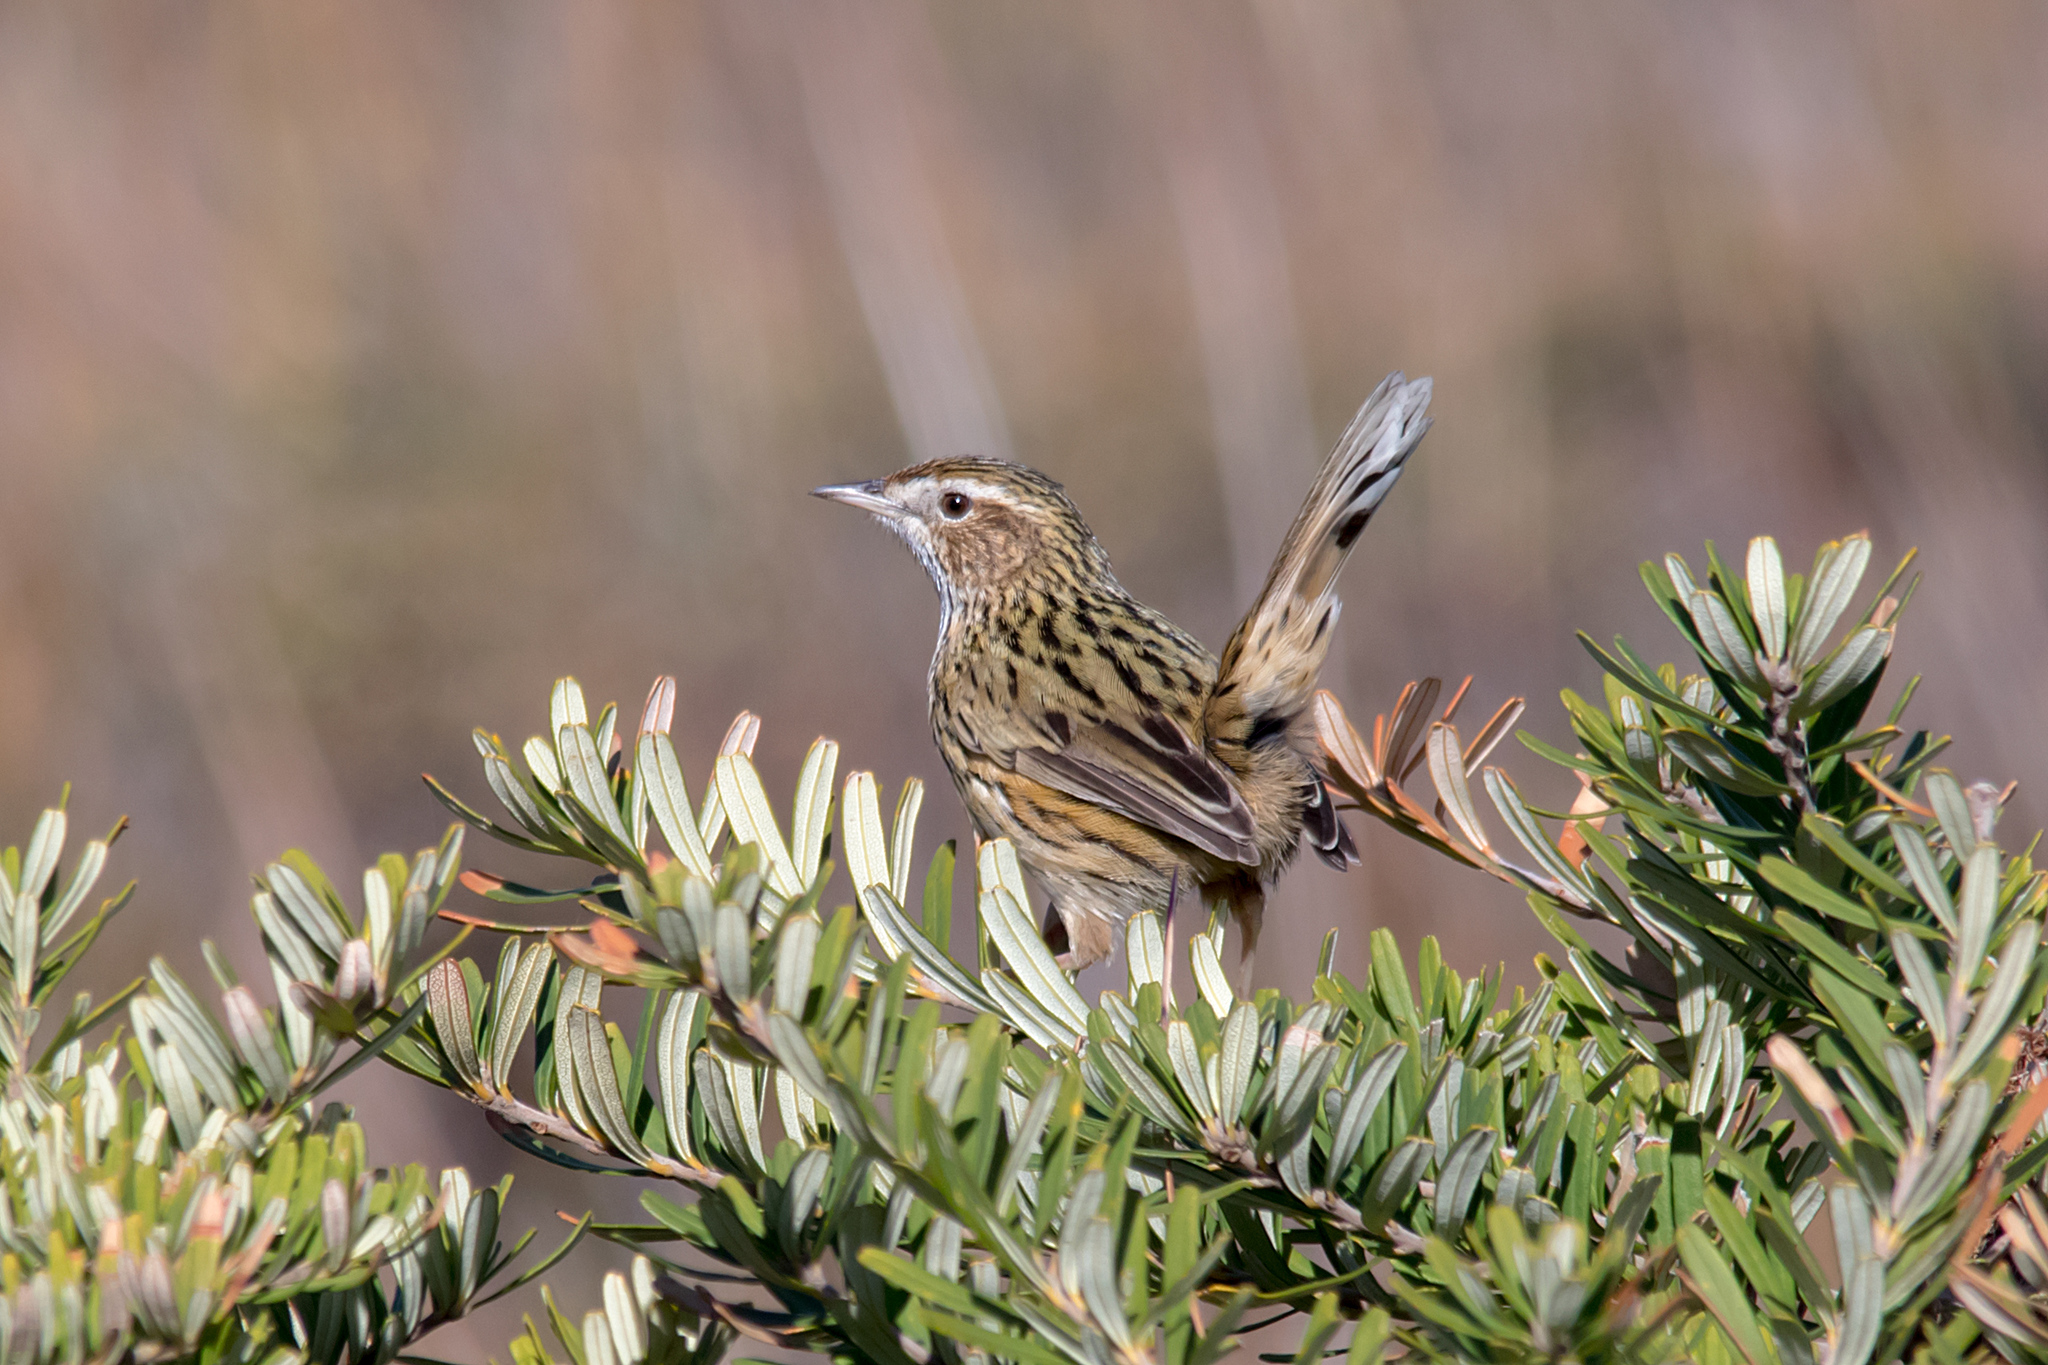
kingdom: Animalia
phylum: Chordata
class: Aves
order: Passeriformes
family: Acanthizidae
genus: Calamanthus
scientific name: Calamanthus fuliginosus
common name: Striated fieldwren
